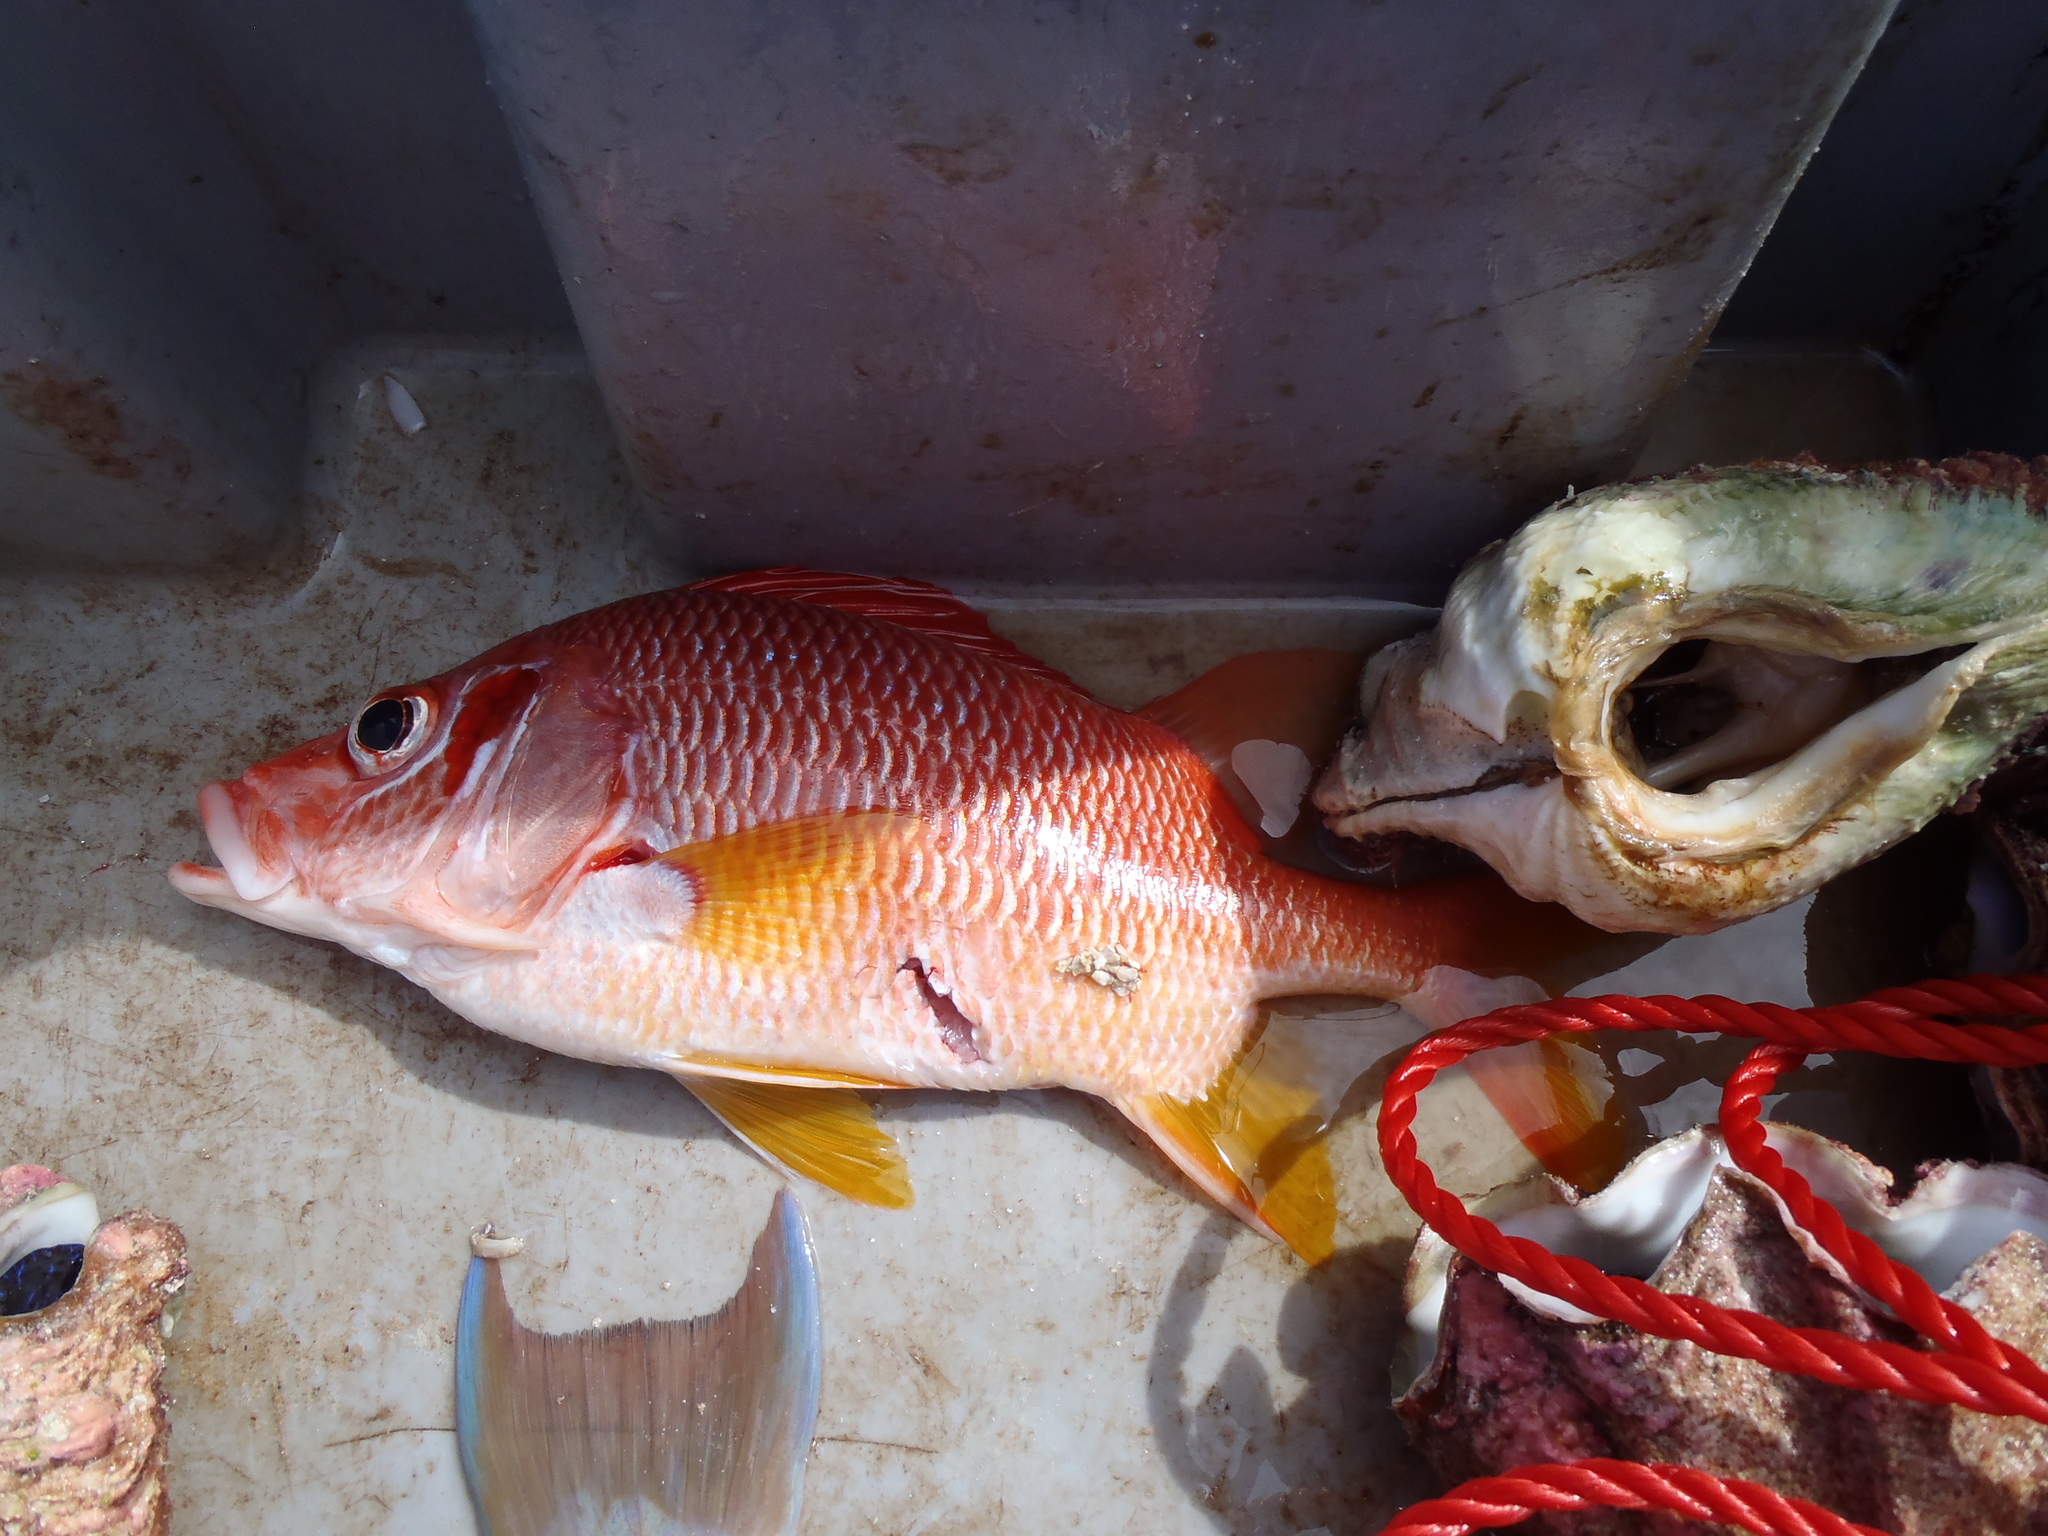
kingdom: Animalia
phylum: Chordata
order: Beryciformes
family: Holocentridae
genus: Sargocentron
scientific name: Sargocentron spiniferum
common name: Giant squirrelfish
